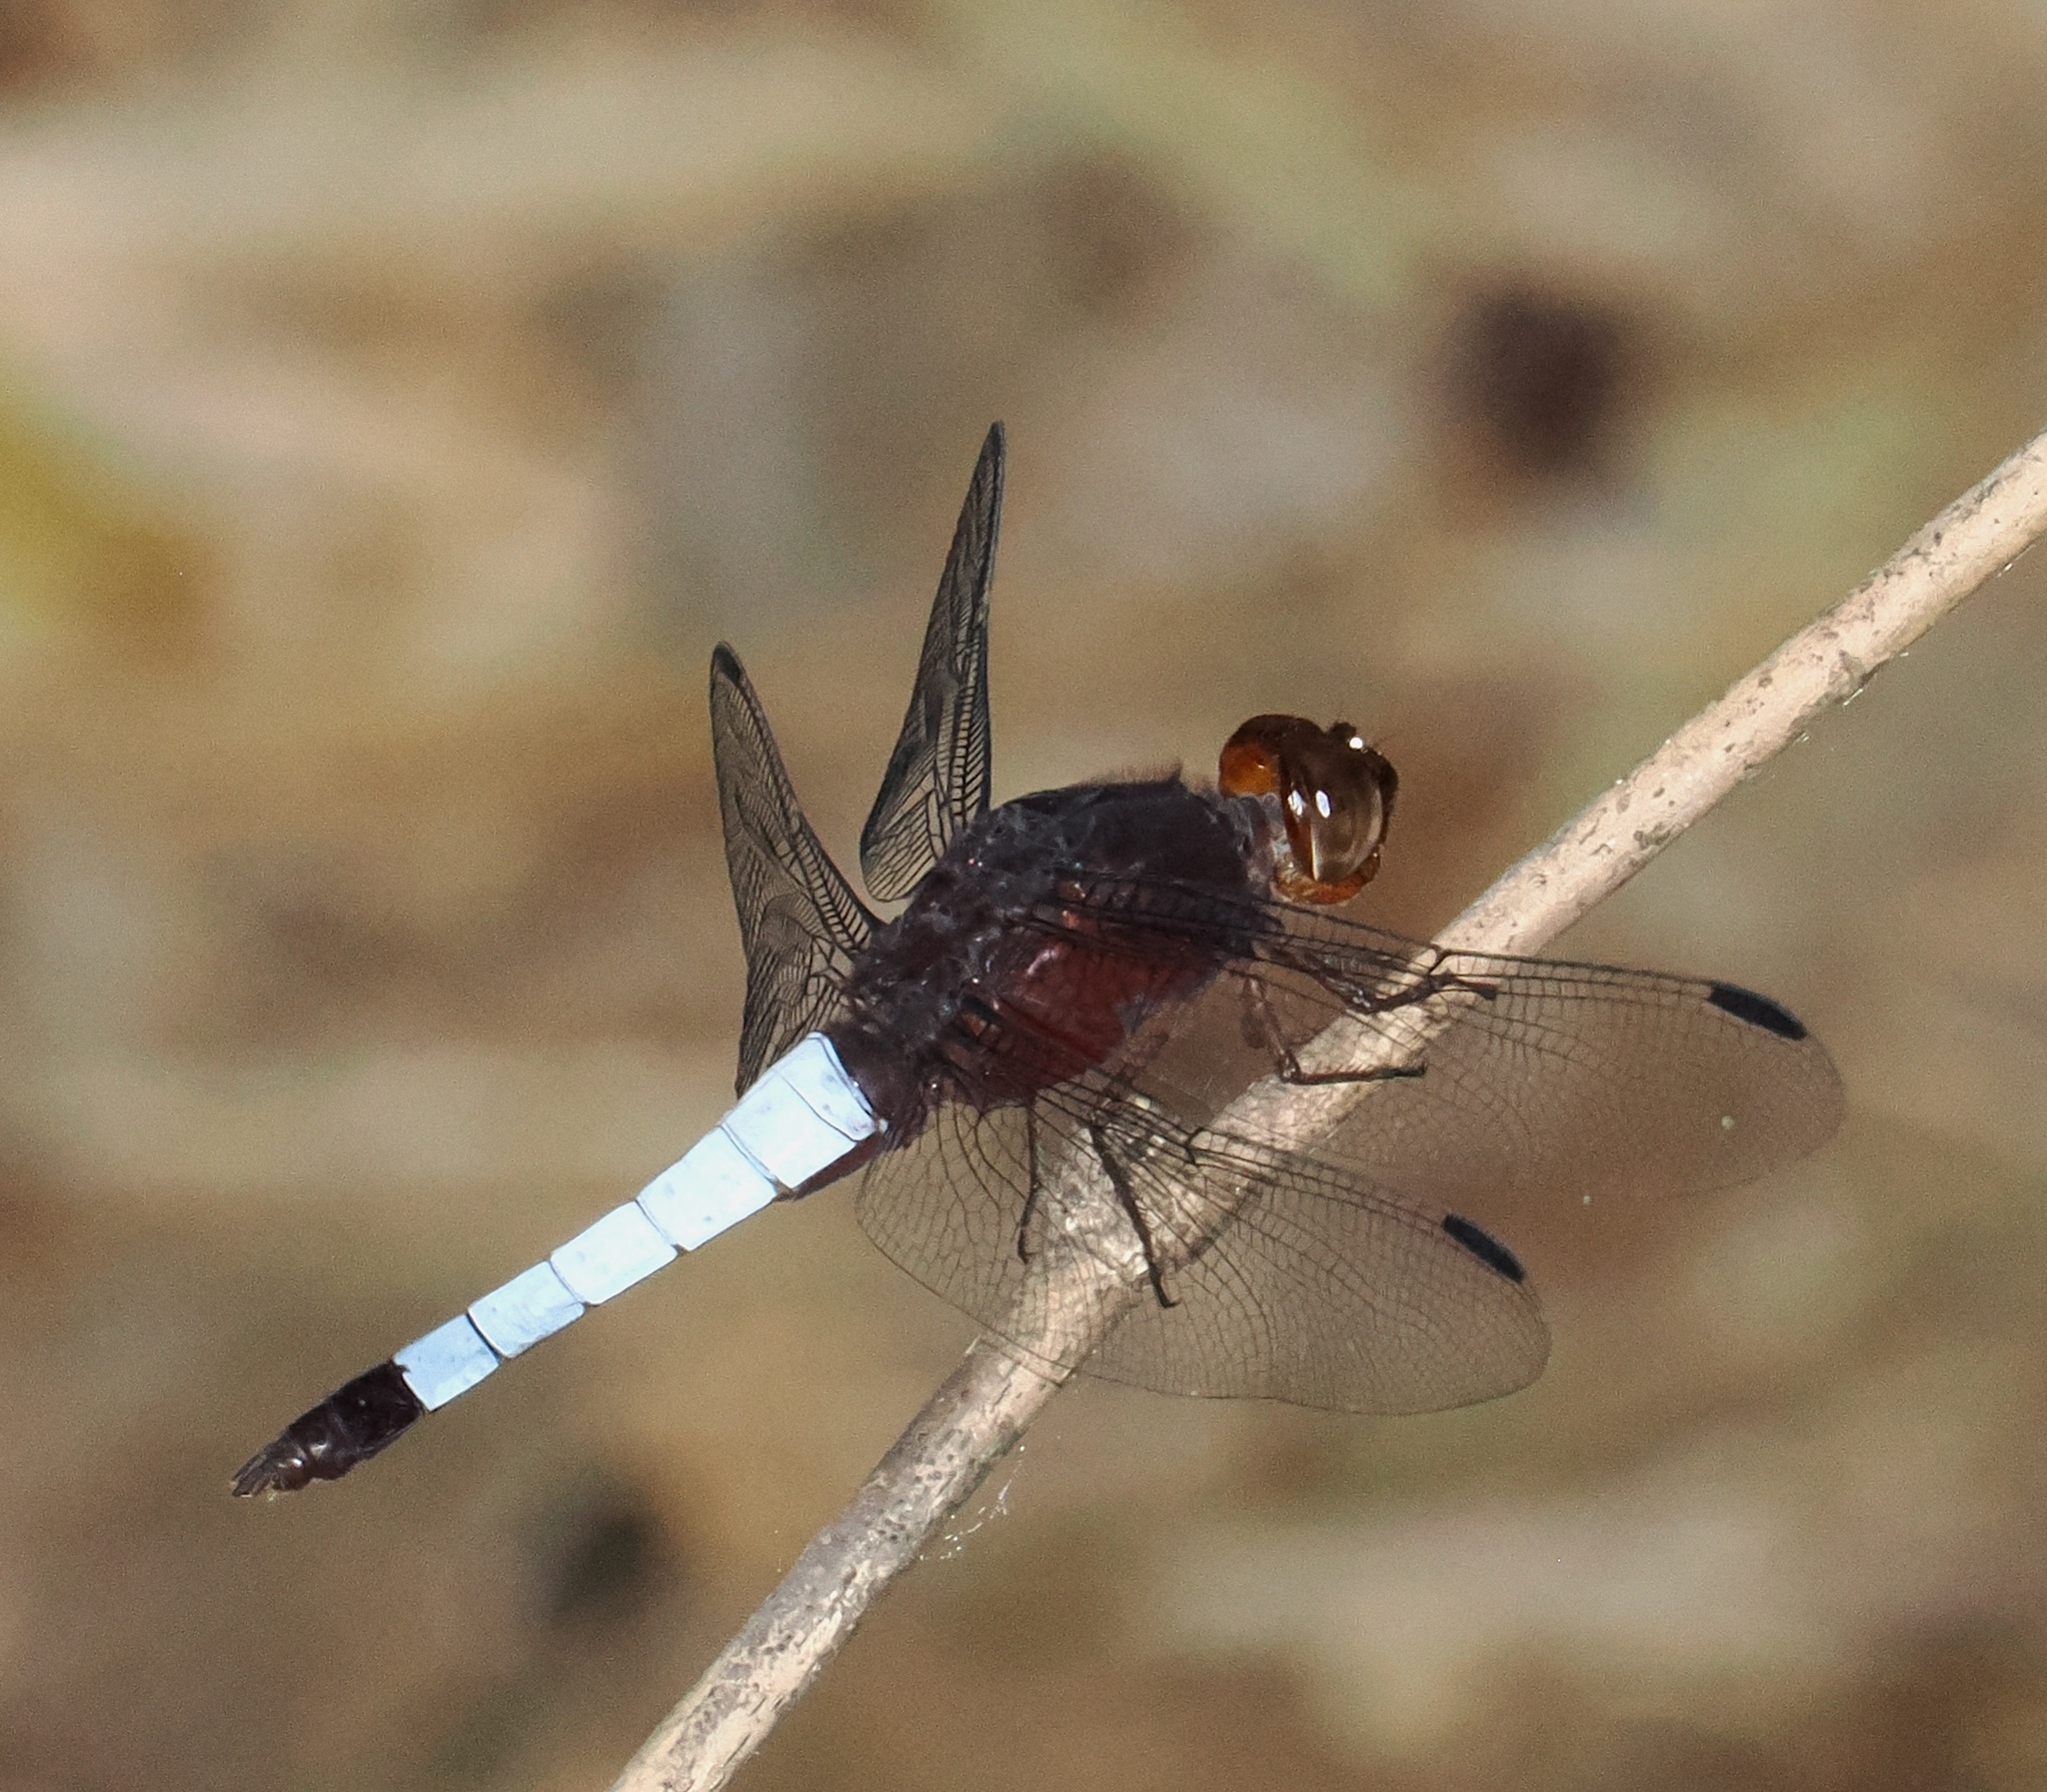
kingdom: Animalia
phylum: Arthropoda
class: Insecta
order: Odonata
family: Libellulidae
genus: Hadrothemis
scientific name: Hadrothemis coacta
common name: Robust jungleskimmer
